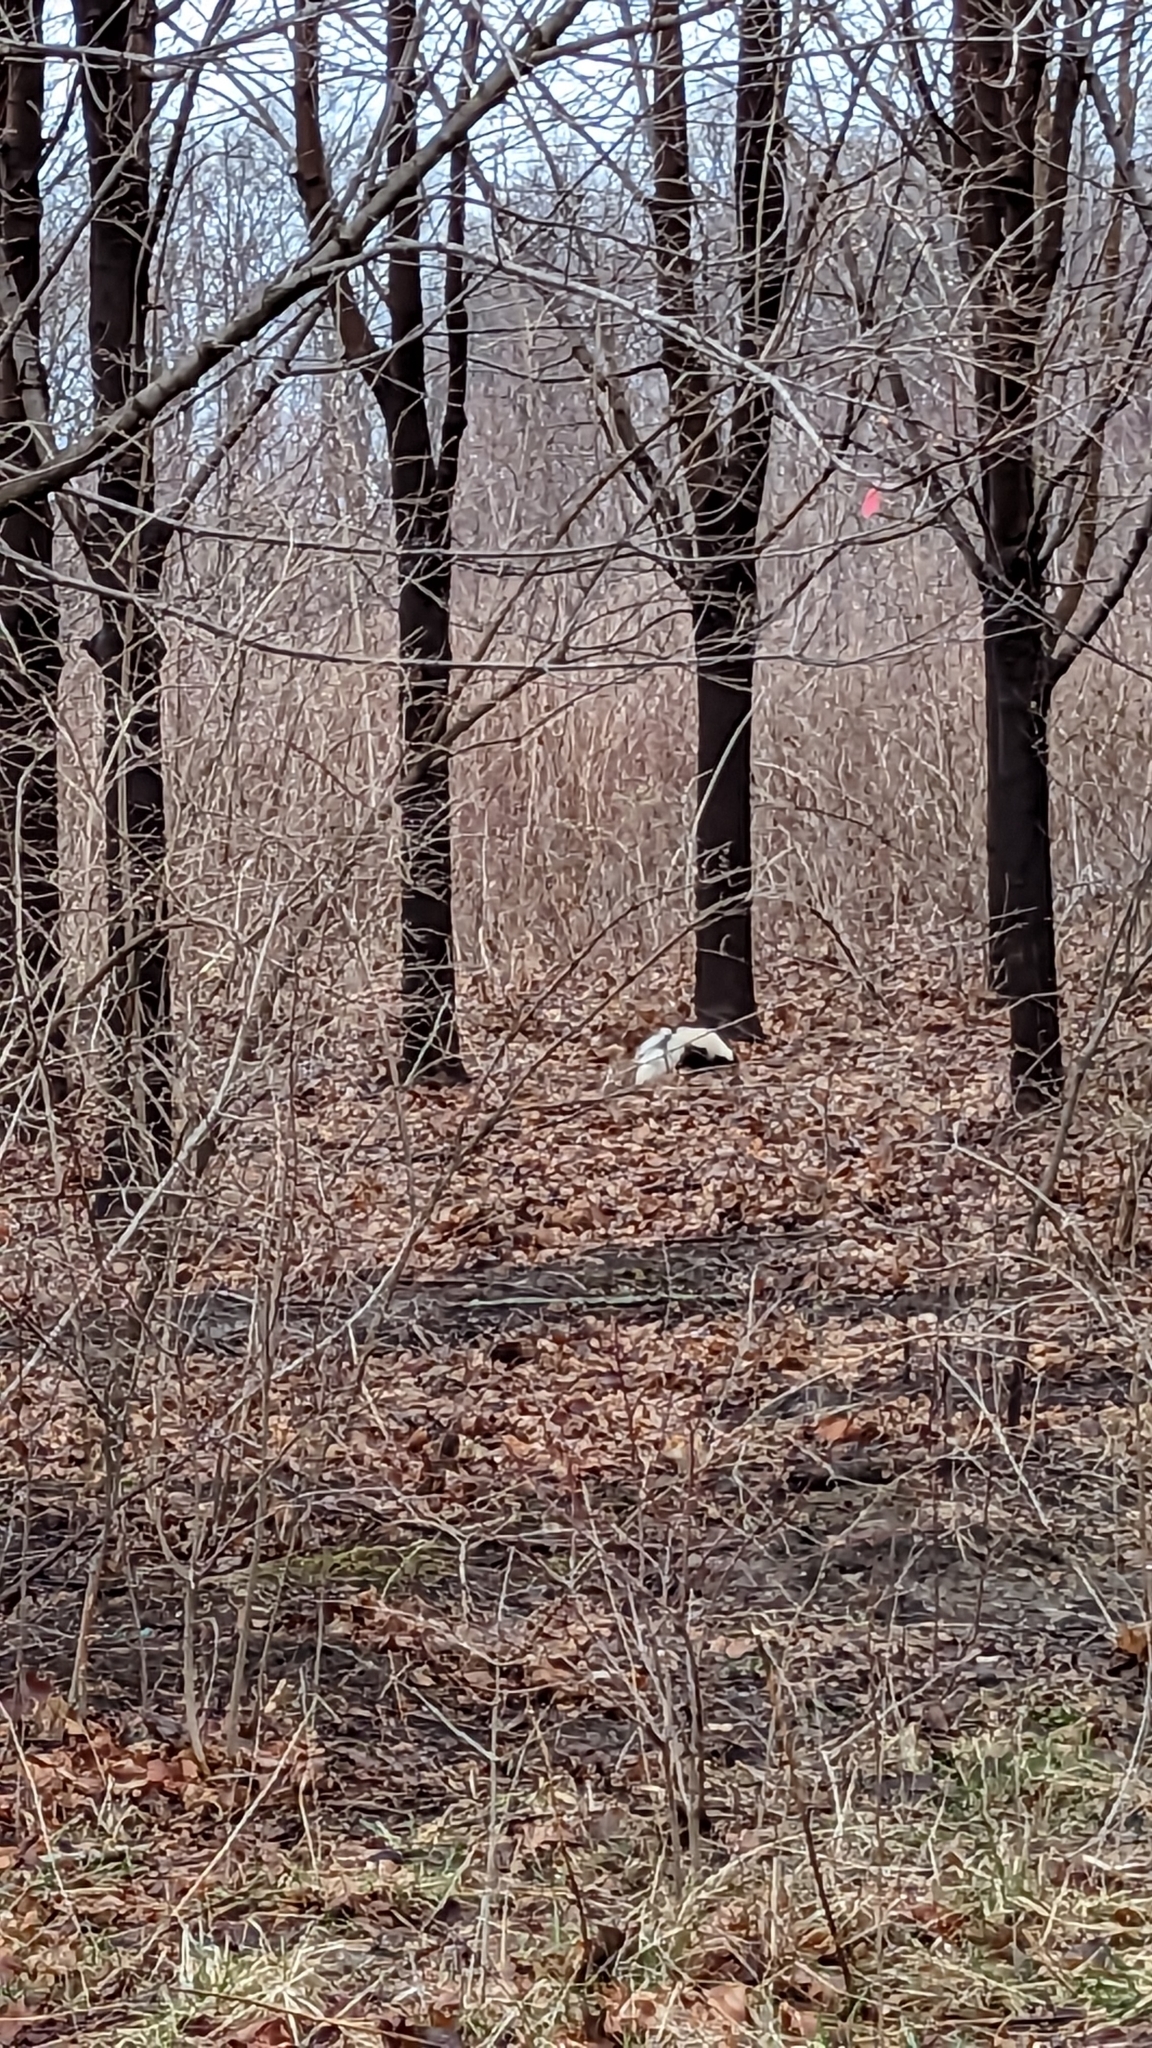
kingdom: Animalia
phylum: Chordata
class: Mammalia
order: Carnivora
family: Mephitidae
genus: Mephitis
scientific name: Mephitis mephitis
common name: Striped skunk
